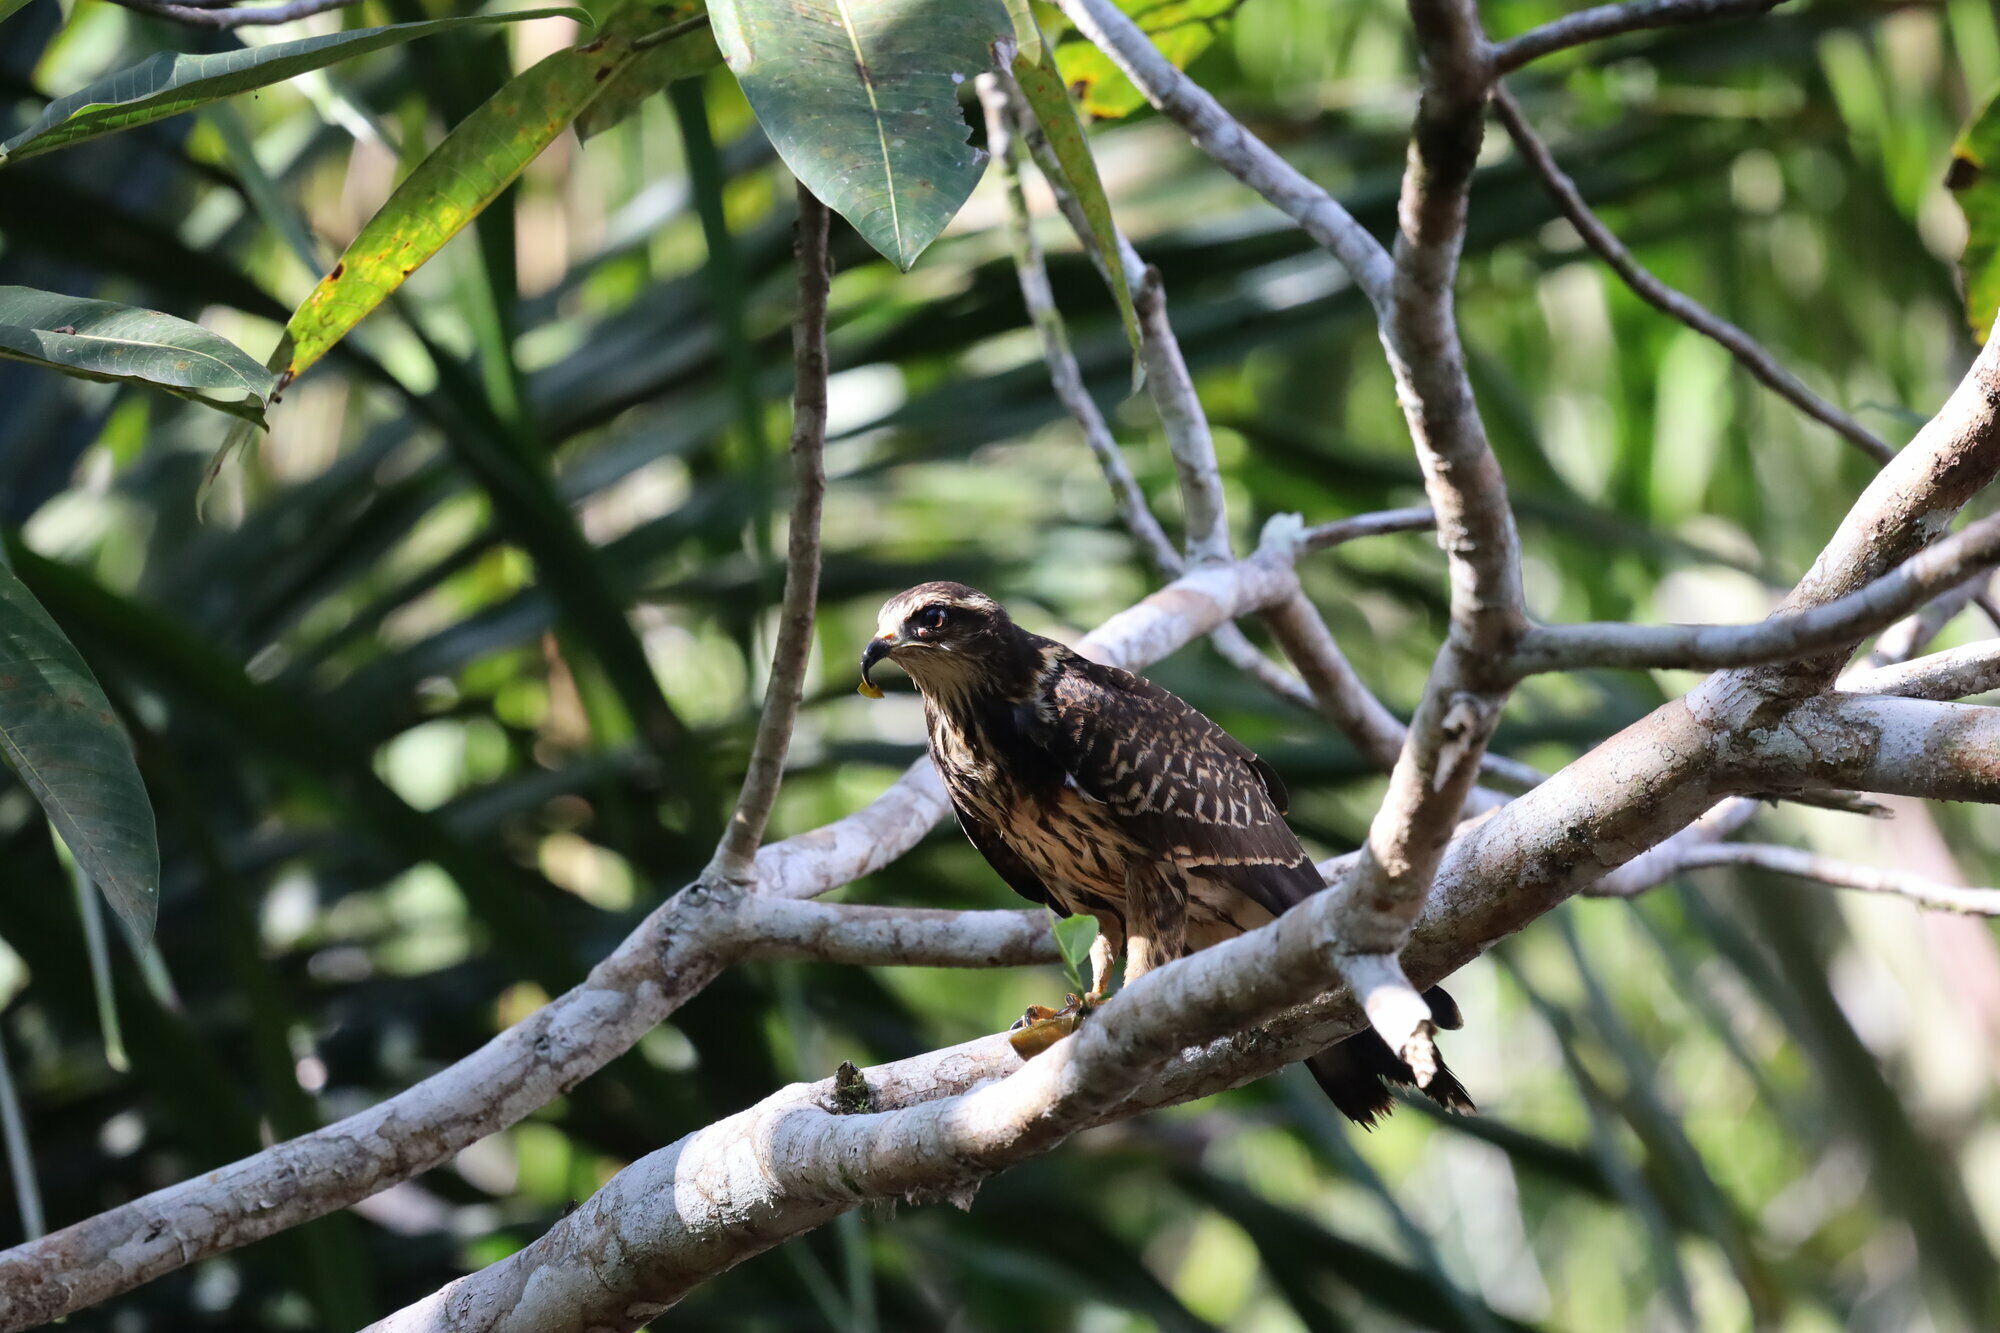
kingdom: Animalia
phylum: Chordata
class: Aves
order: Accipitriformes
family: Accipitridae
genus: Rostrhamus
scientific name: Rostrhamus sociabilis
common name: Snail kite
